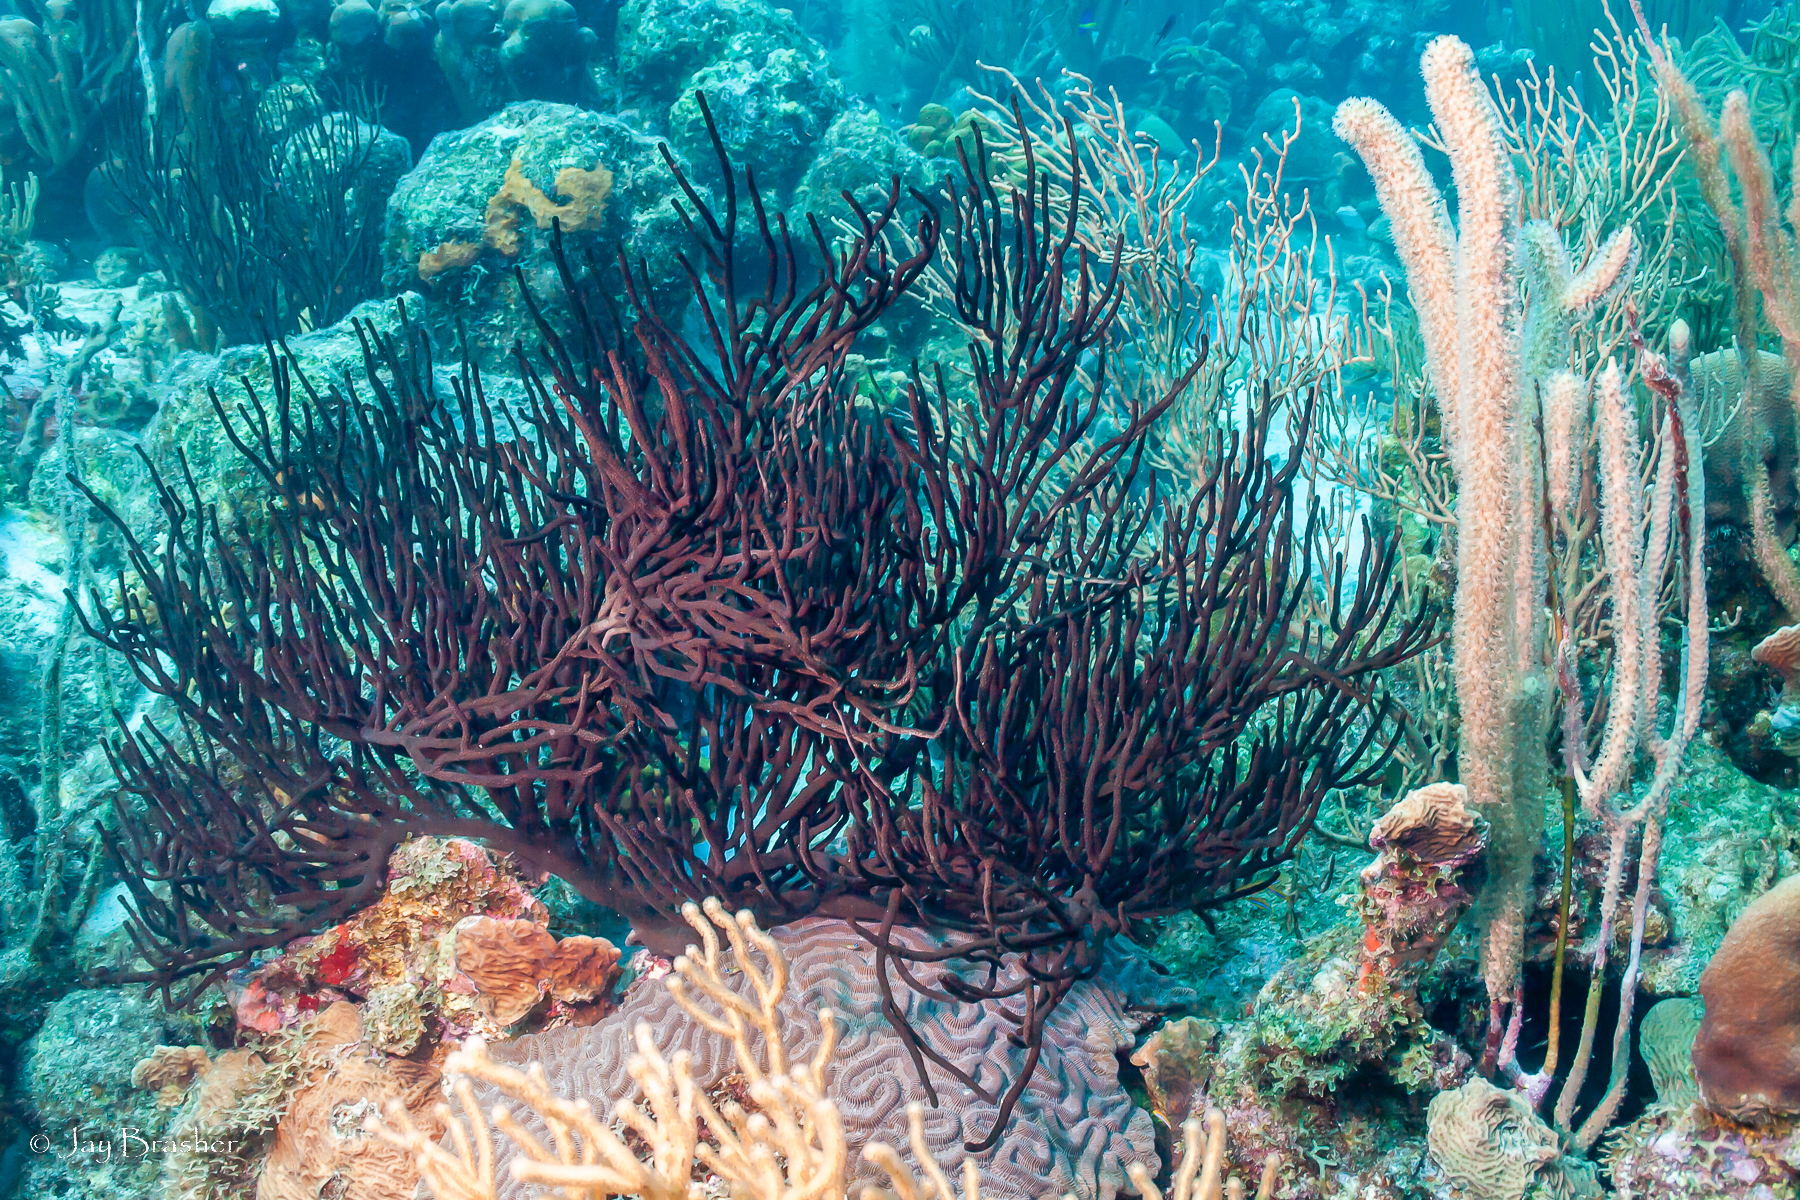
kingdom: Animalia
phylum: Cnidaria
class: Anthozoa
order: Malacalcyonacea
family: Plexauridae
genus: Plexaura
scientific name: Plexaura homomalla
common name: Black sea rod
